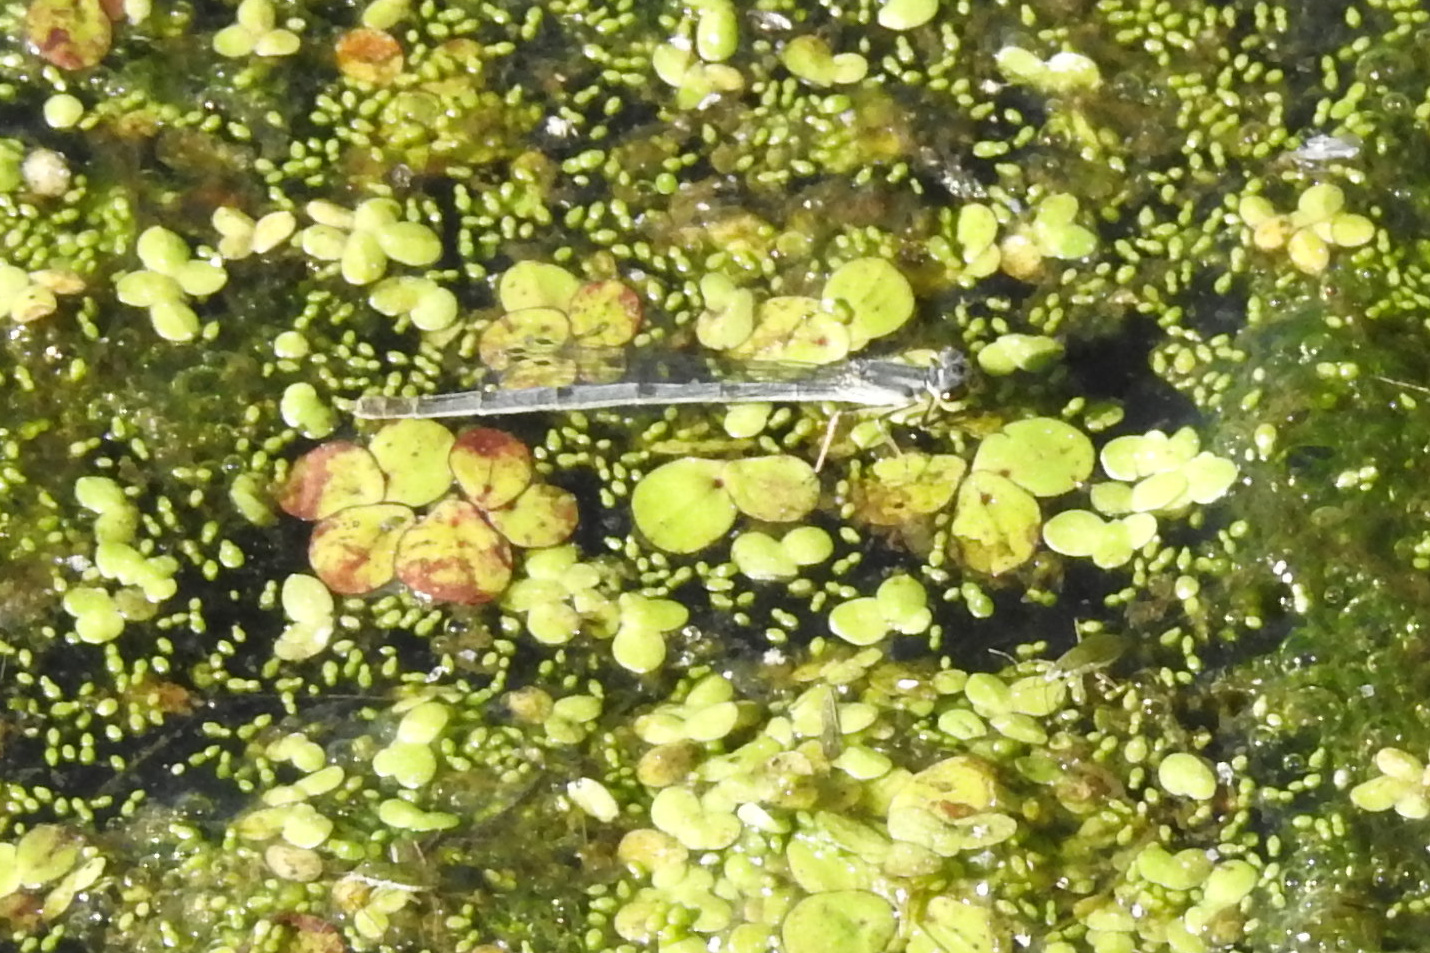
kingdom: Animalia
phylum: Arthropoda
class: Insecta
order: Odonata
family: Coenagrionidae
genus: Ischnura
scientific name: Ischnura posita
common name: Fragile forktail
